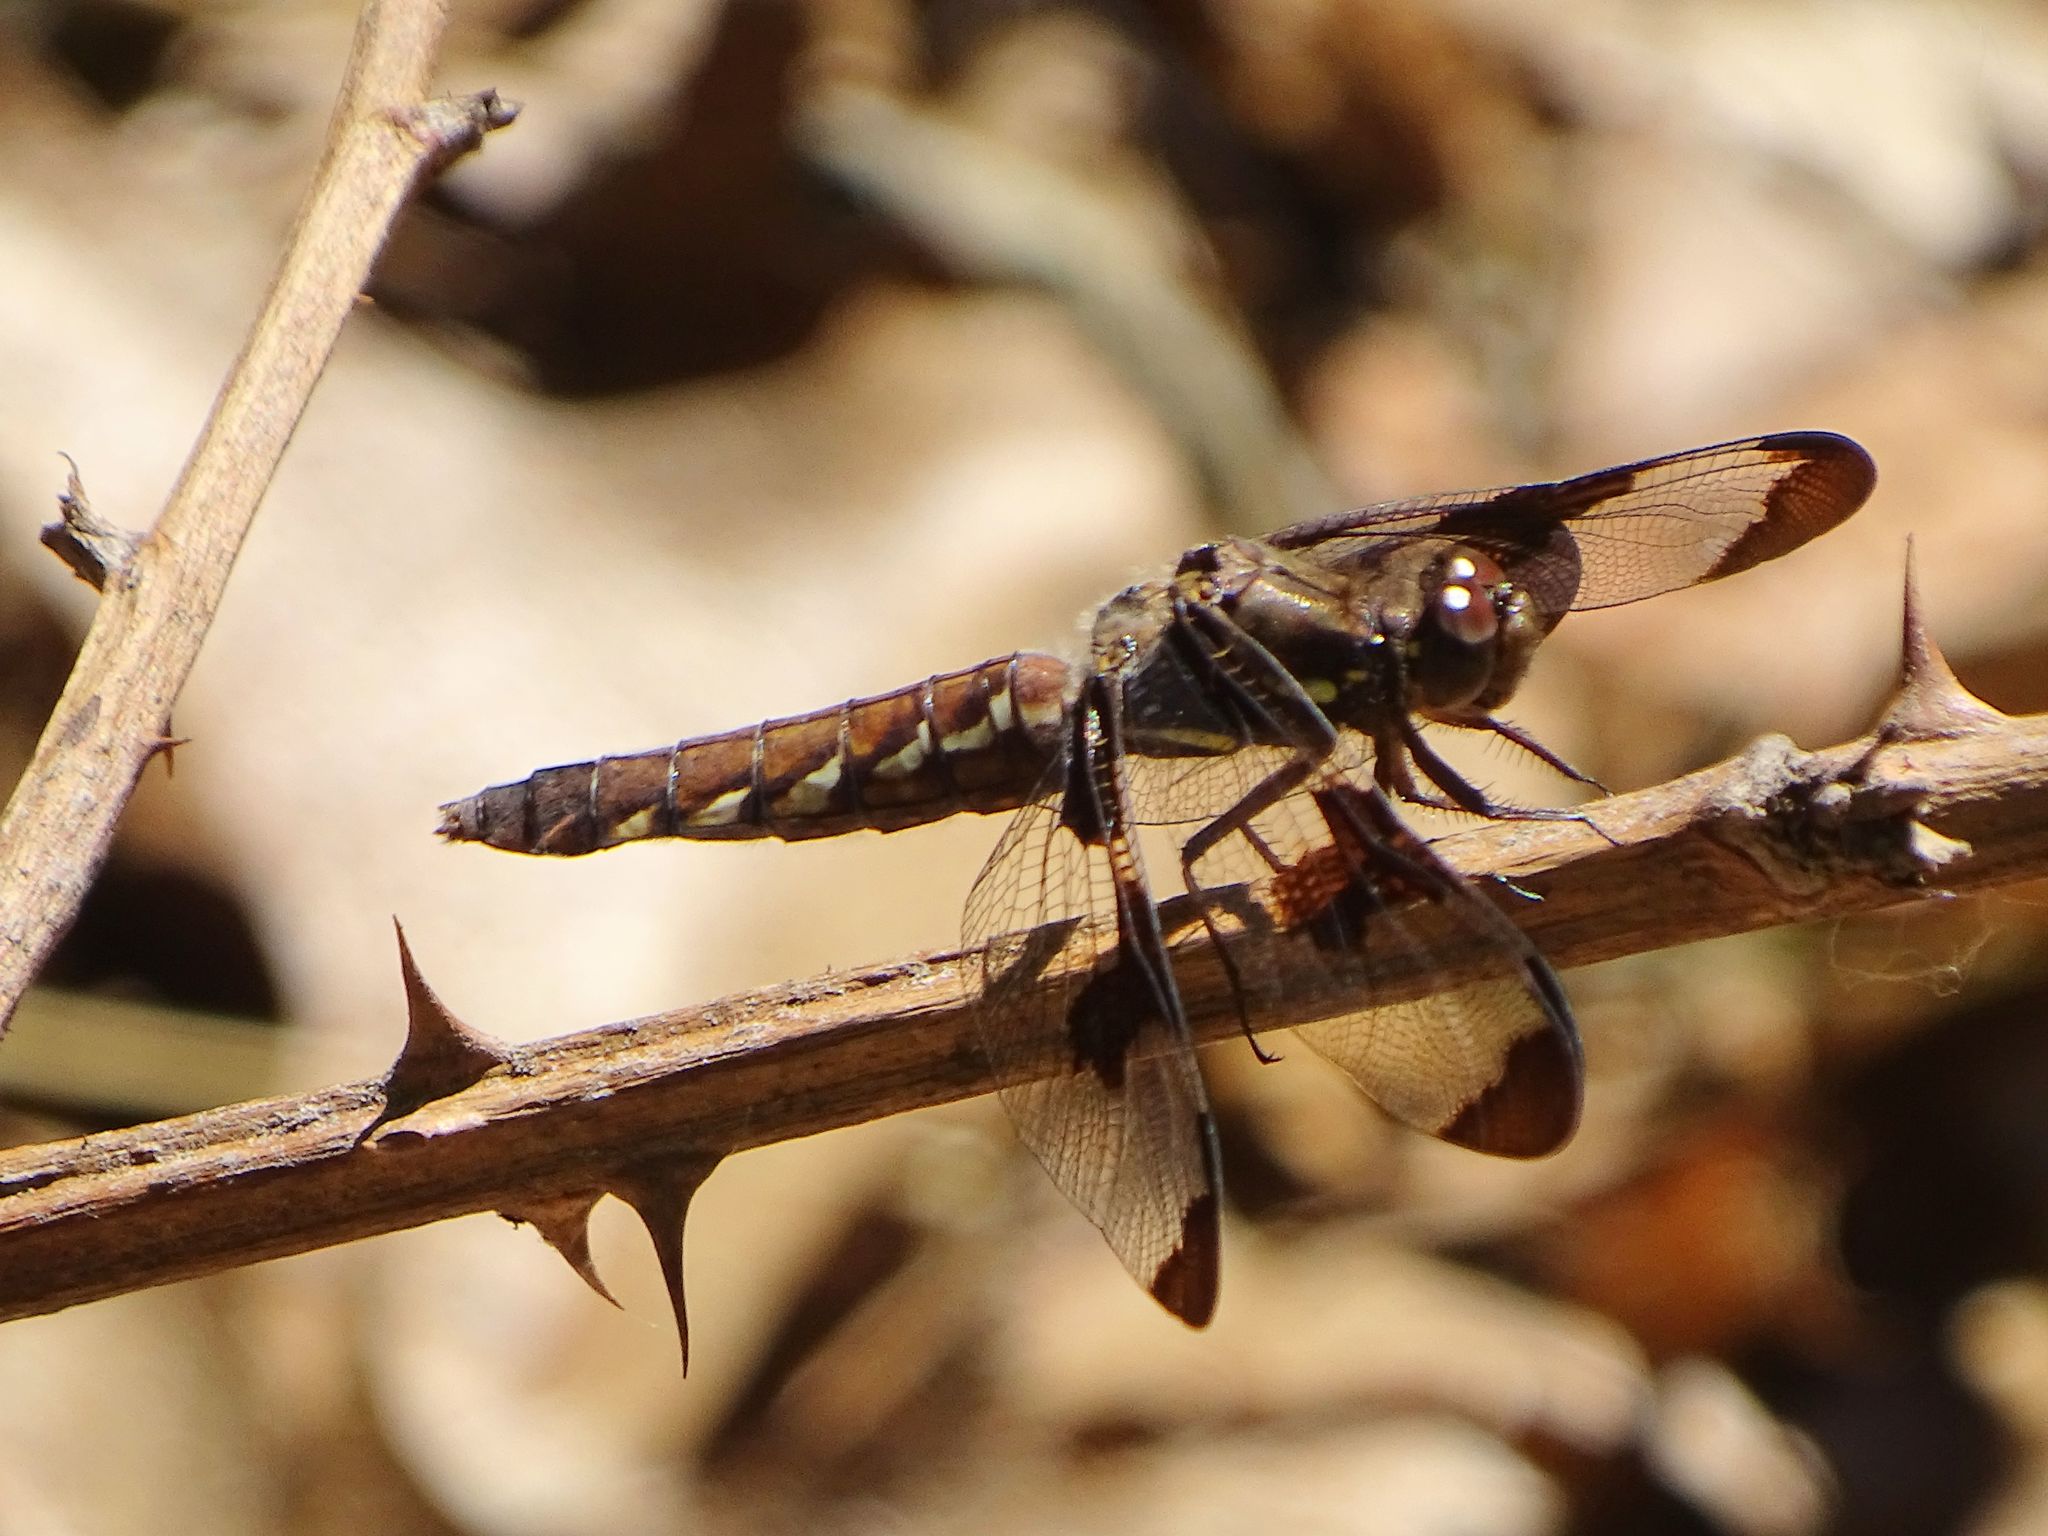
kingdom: Animalia
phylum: Arthropoda
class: Insecta
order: Odonata
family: Libellulidae
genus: Plathemis
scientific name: Plathemis lydia
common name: Common whitetail
